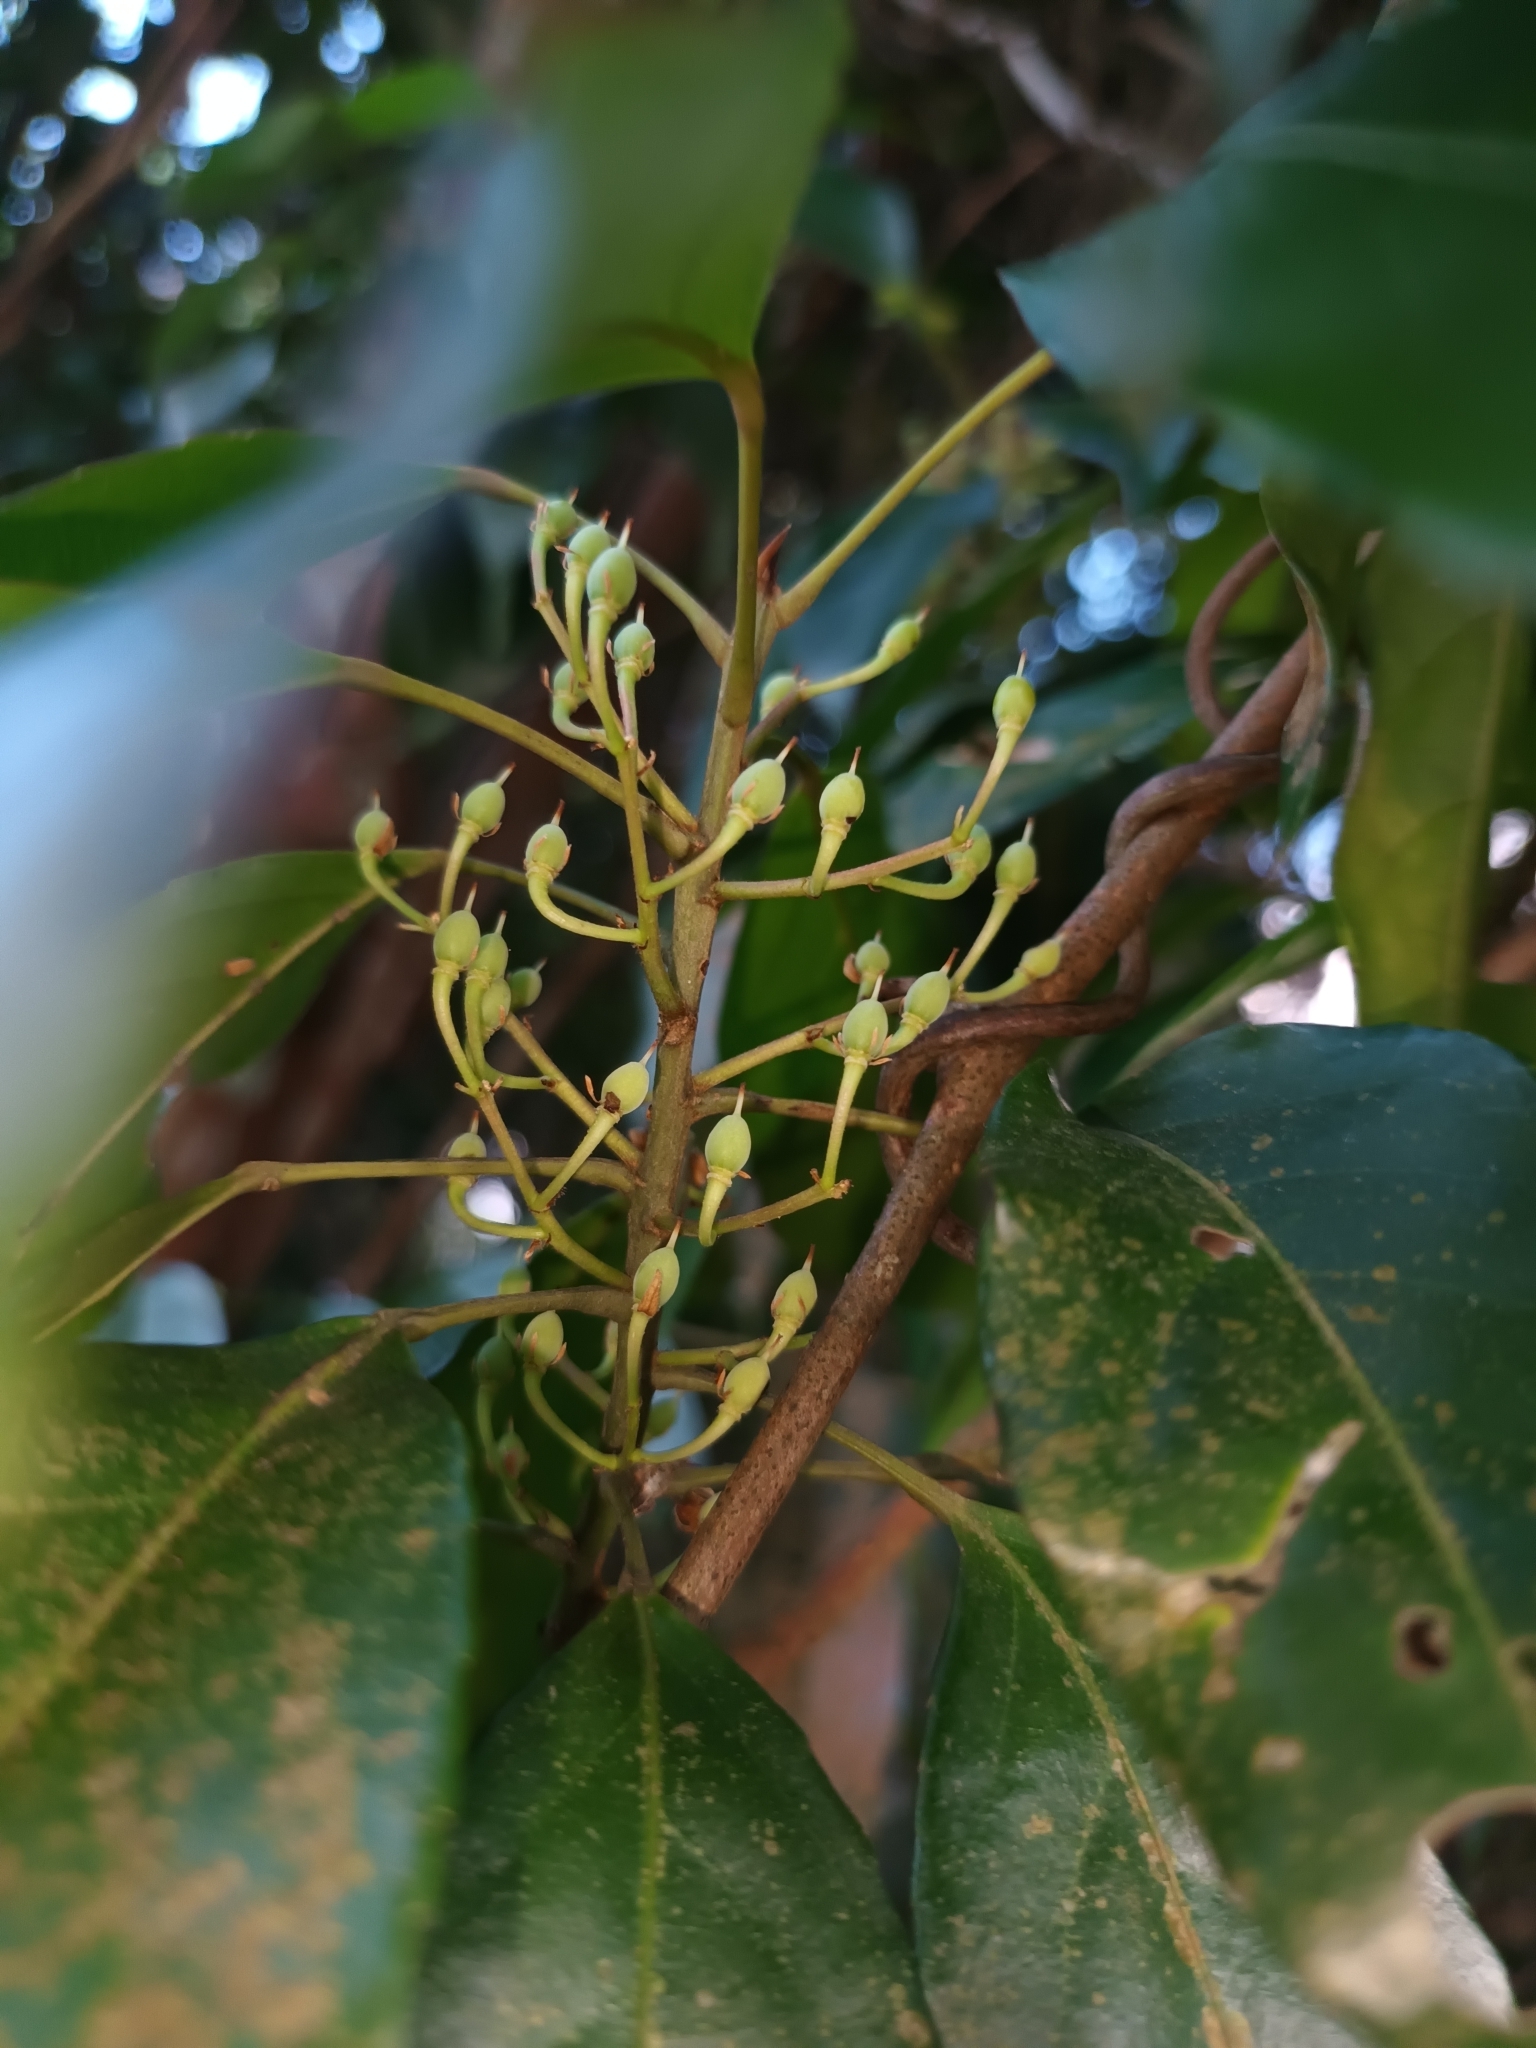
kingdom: Plantae
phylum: Tracheophyta
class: Magnoliopsida
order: Oxalidales
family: Elaeocarpaceae
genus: Elaeocarpus
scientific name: Elaeocarpus mastersii
